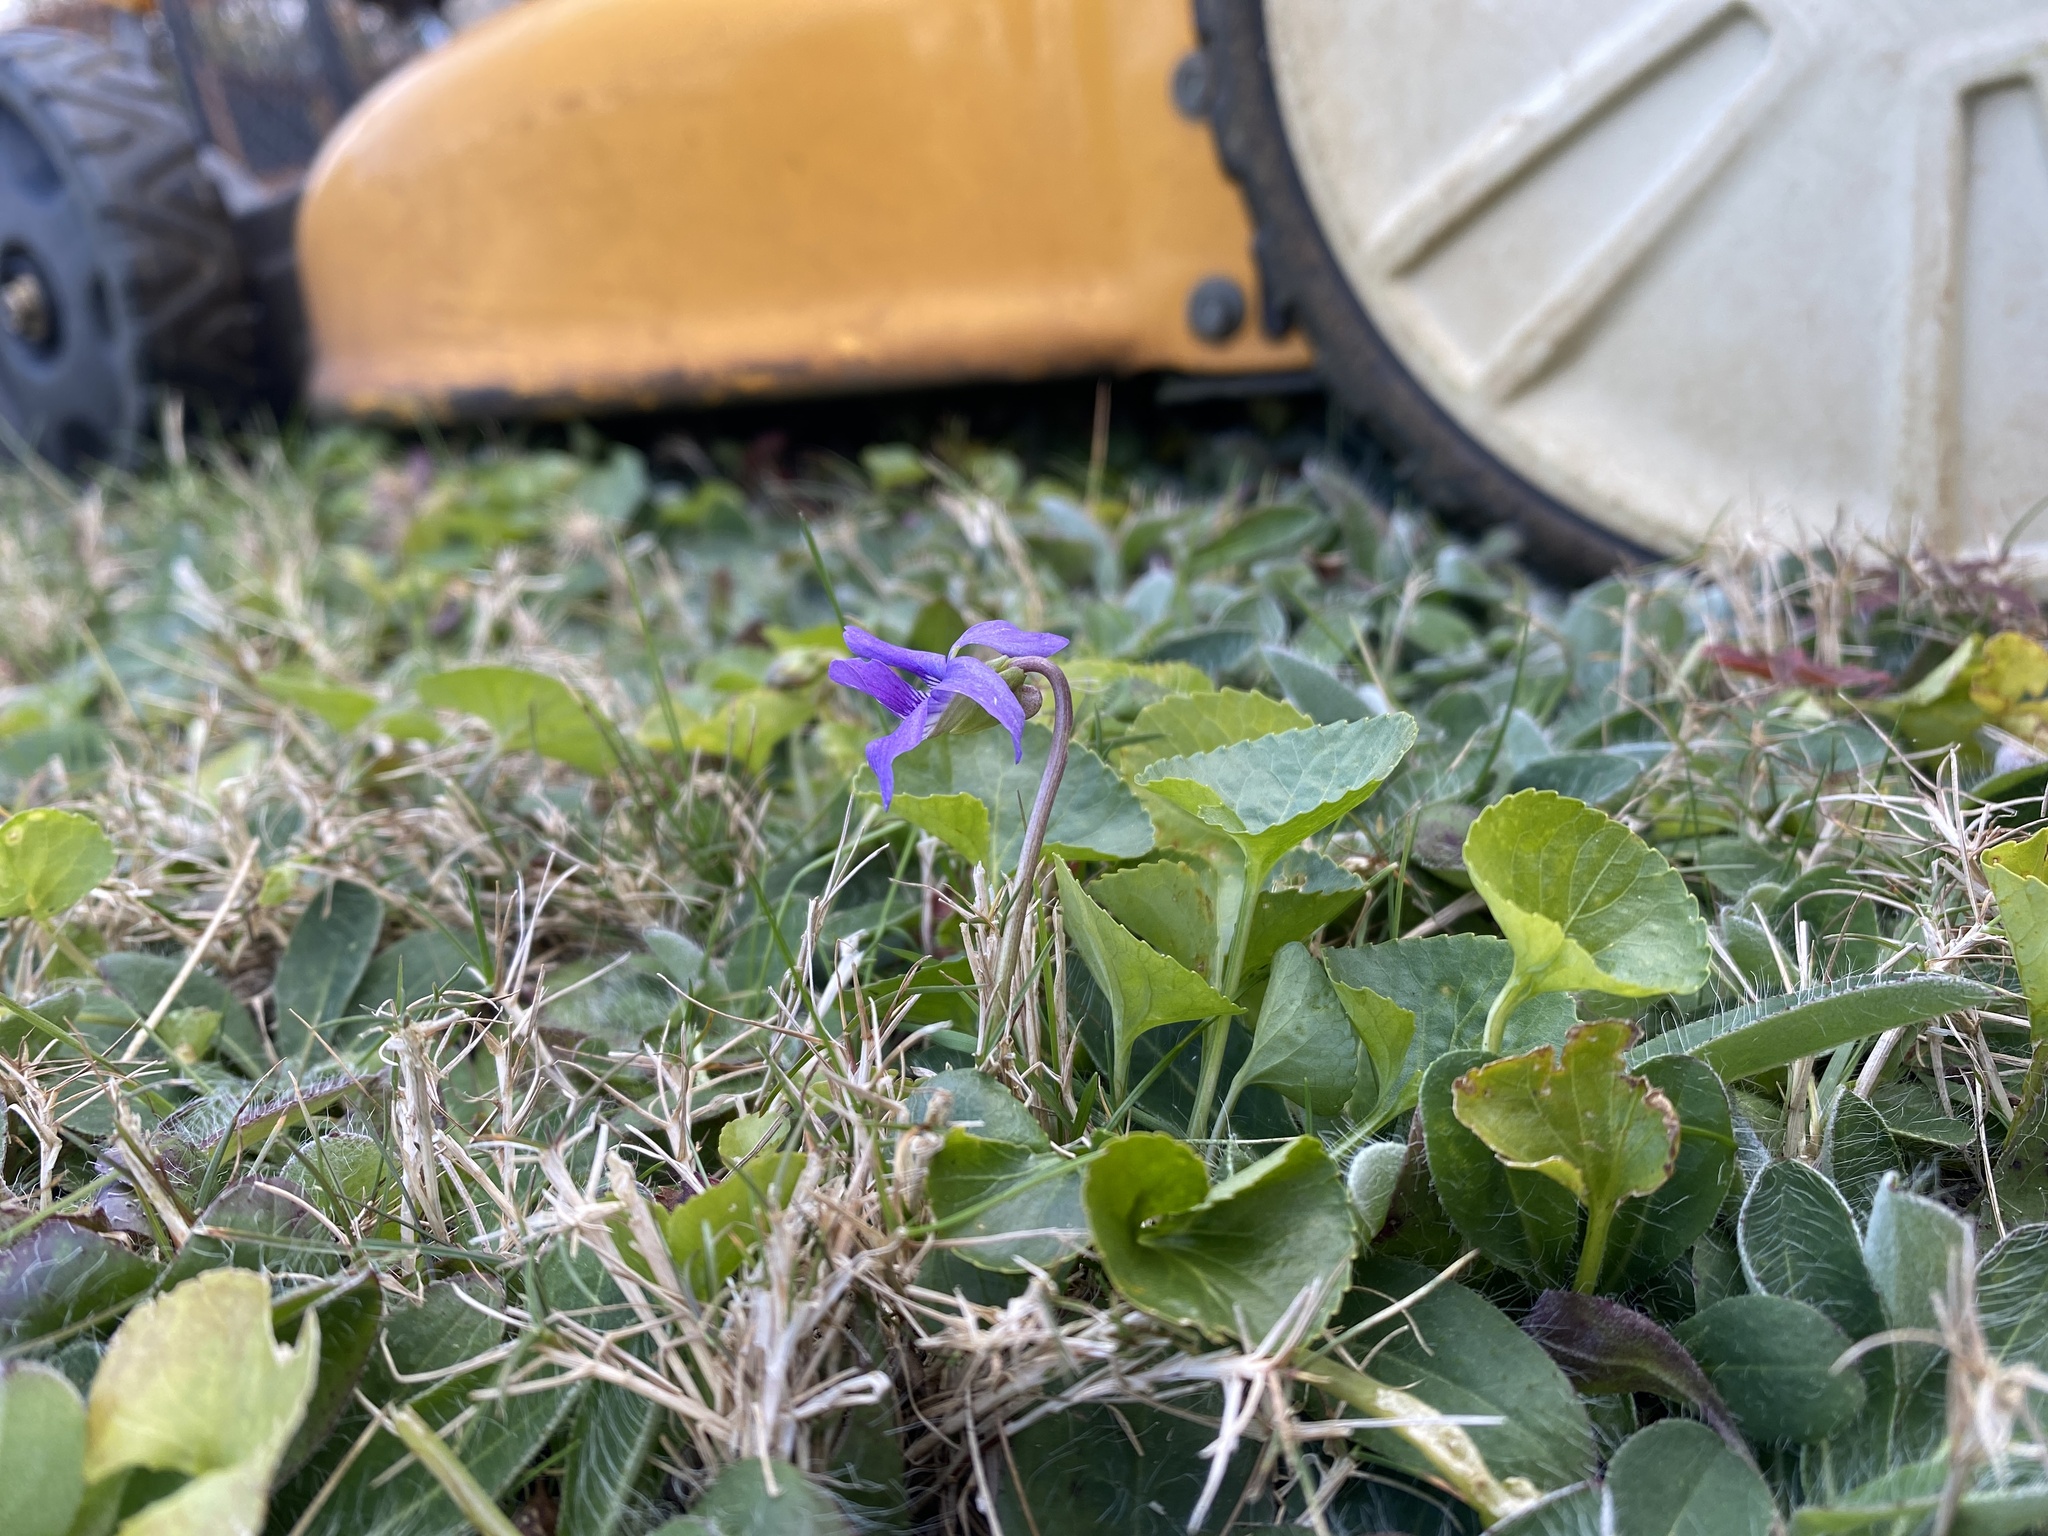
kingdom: Plantae
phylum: Tracheophyta
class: Magnoliopsida
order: Malpighiales
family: Violaceae
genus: Viola
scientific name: Viola sororia
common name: Dooryard violet
